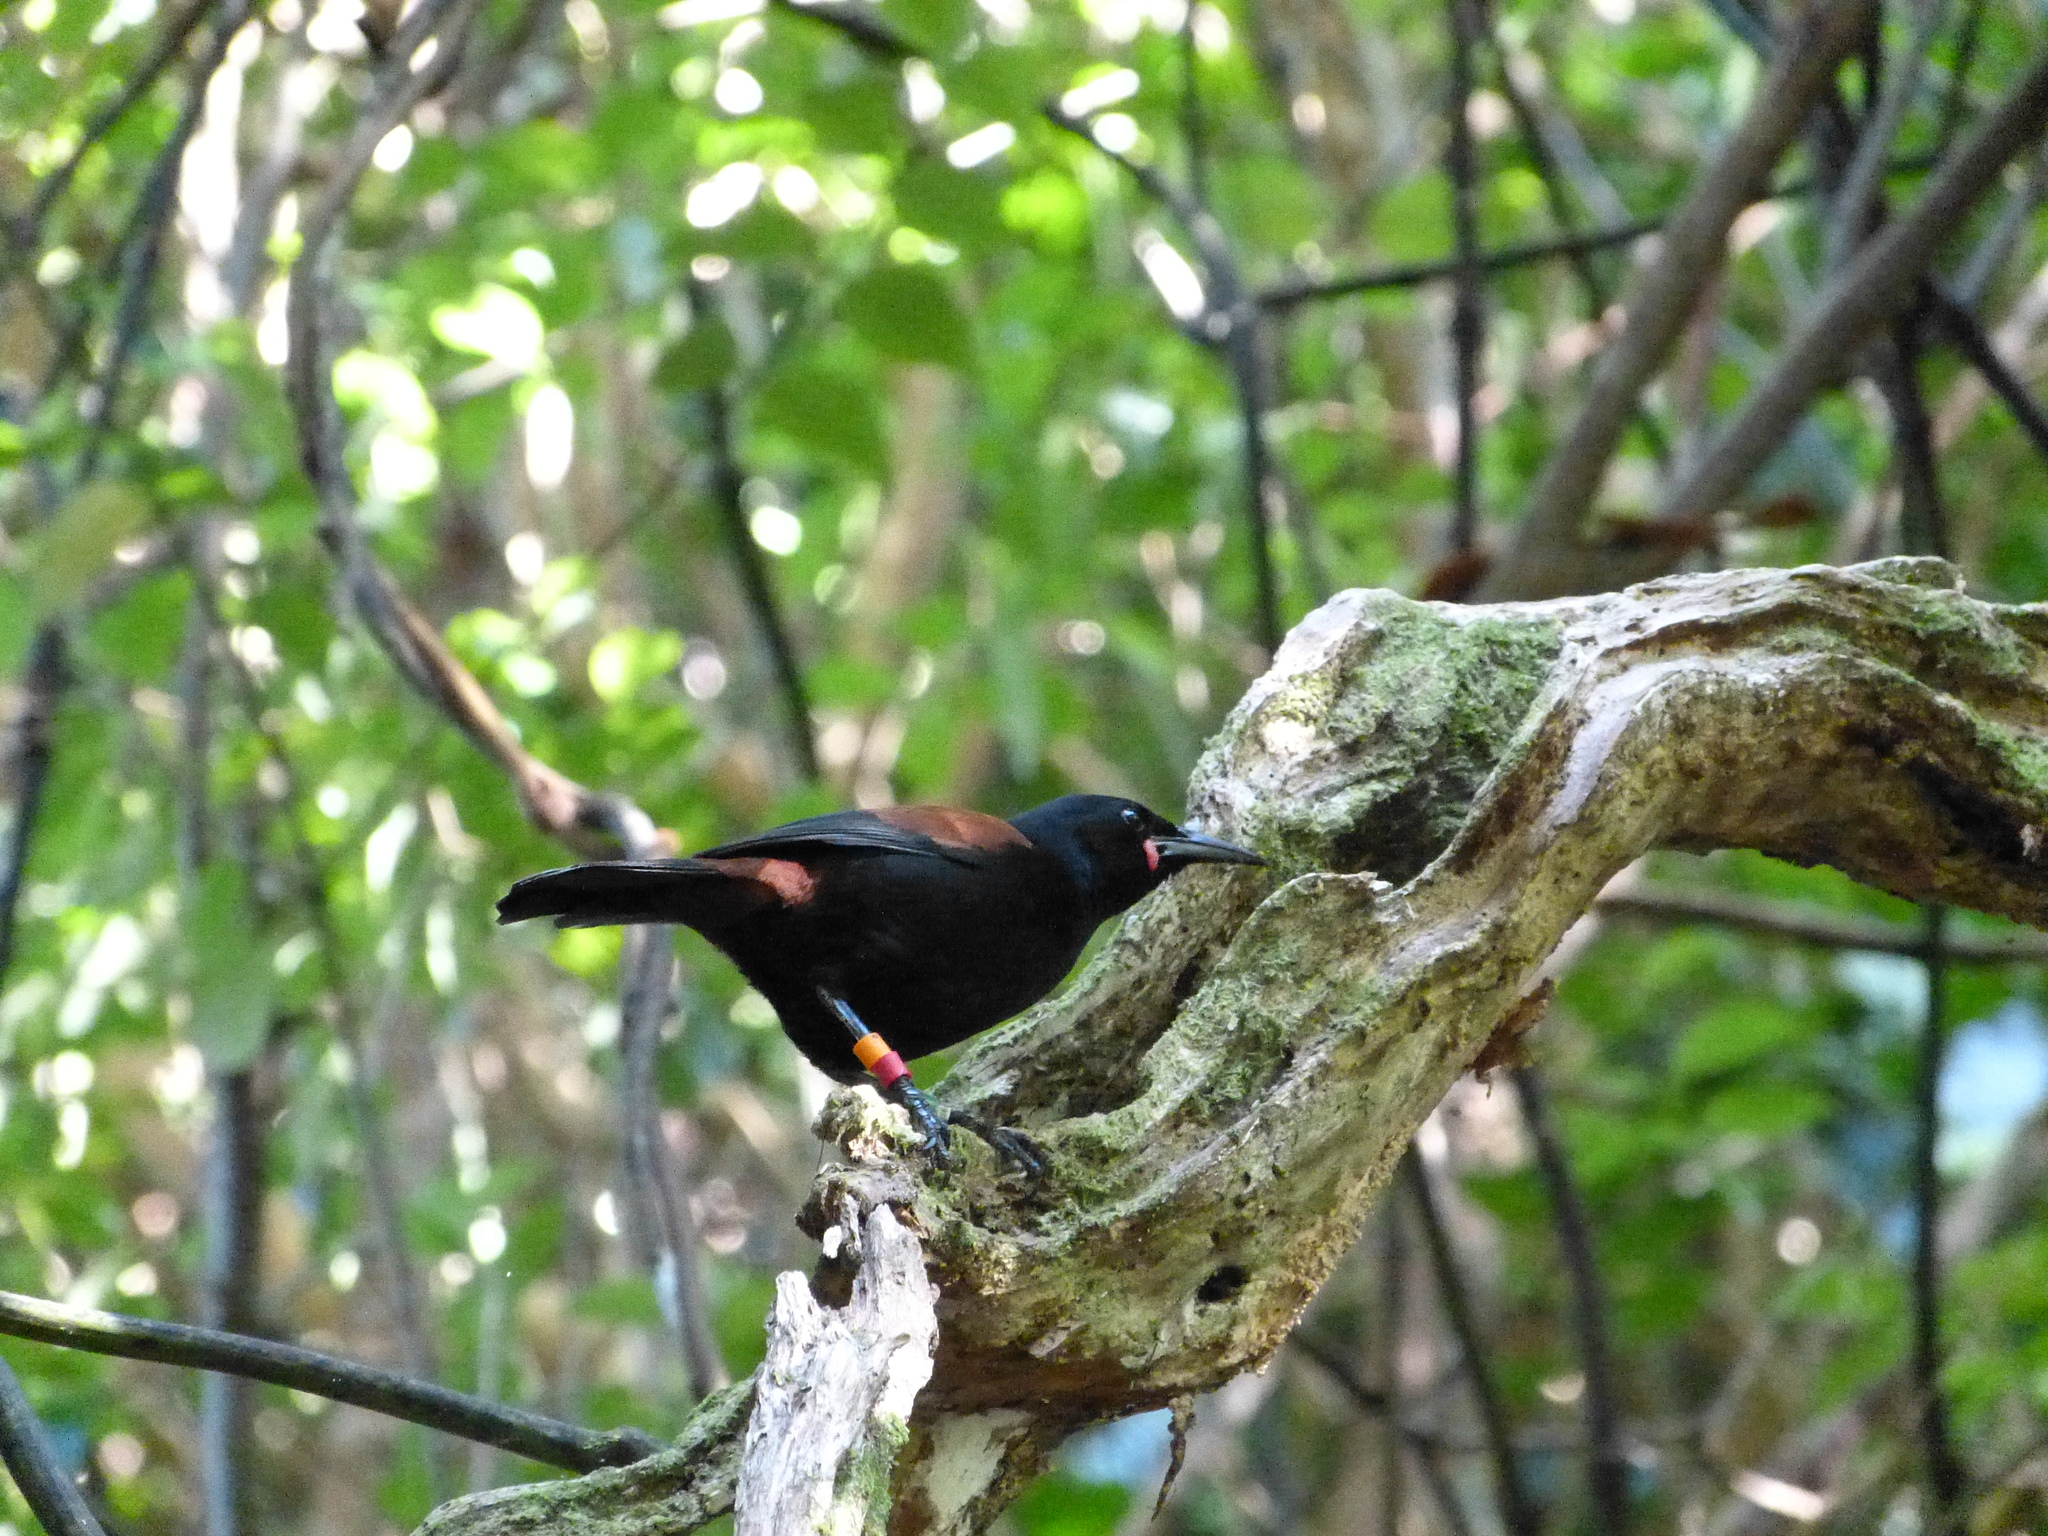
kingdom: Animalia
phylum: Chordata
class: Aves
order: Passeriformes
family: Callaeatidae
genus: Philesturnus
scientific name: Philesturnus carunculatus
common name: South island saddleback
